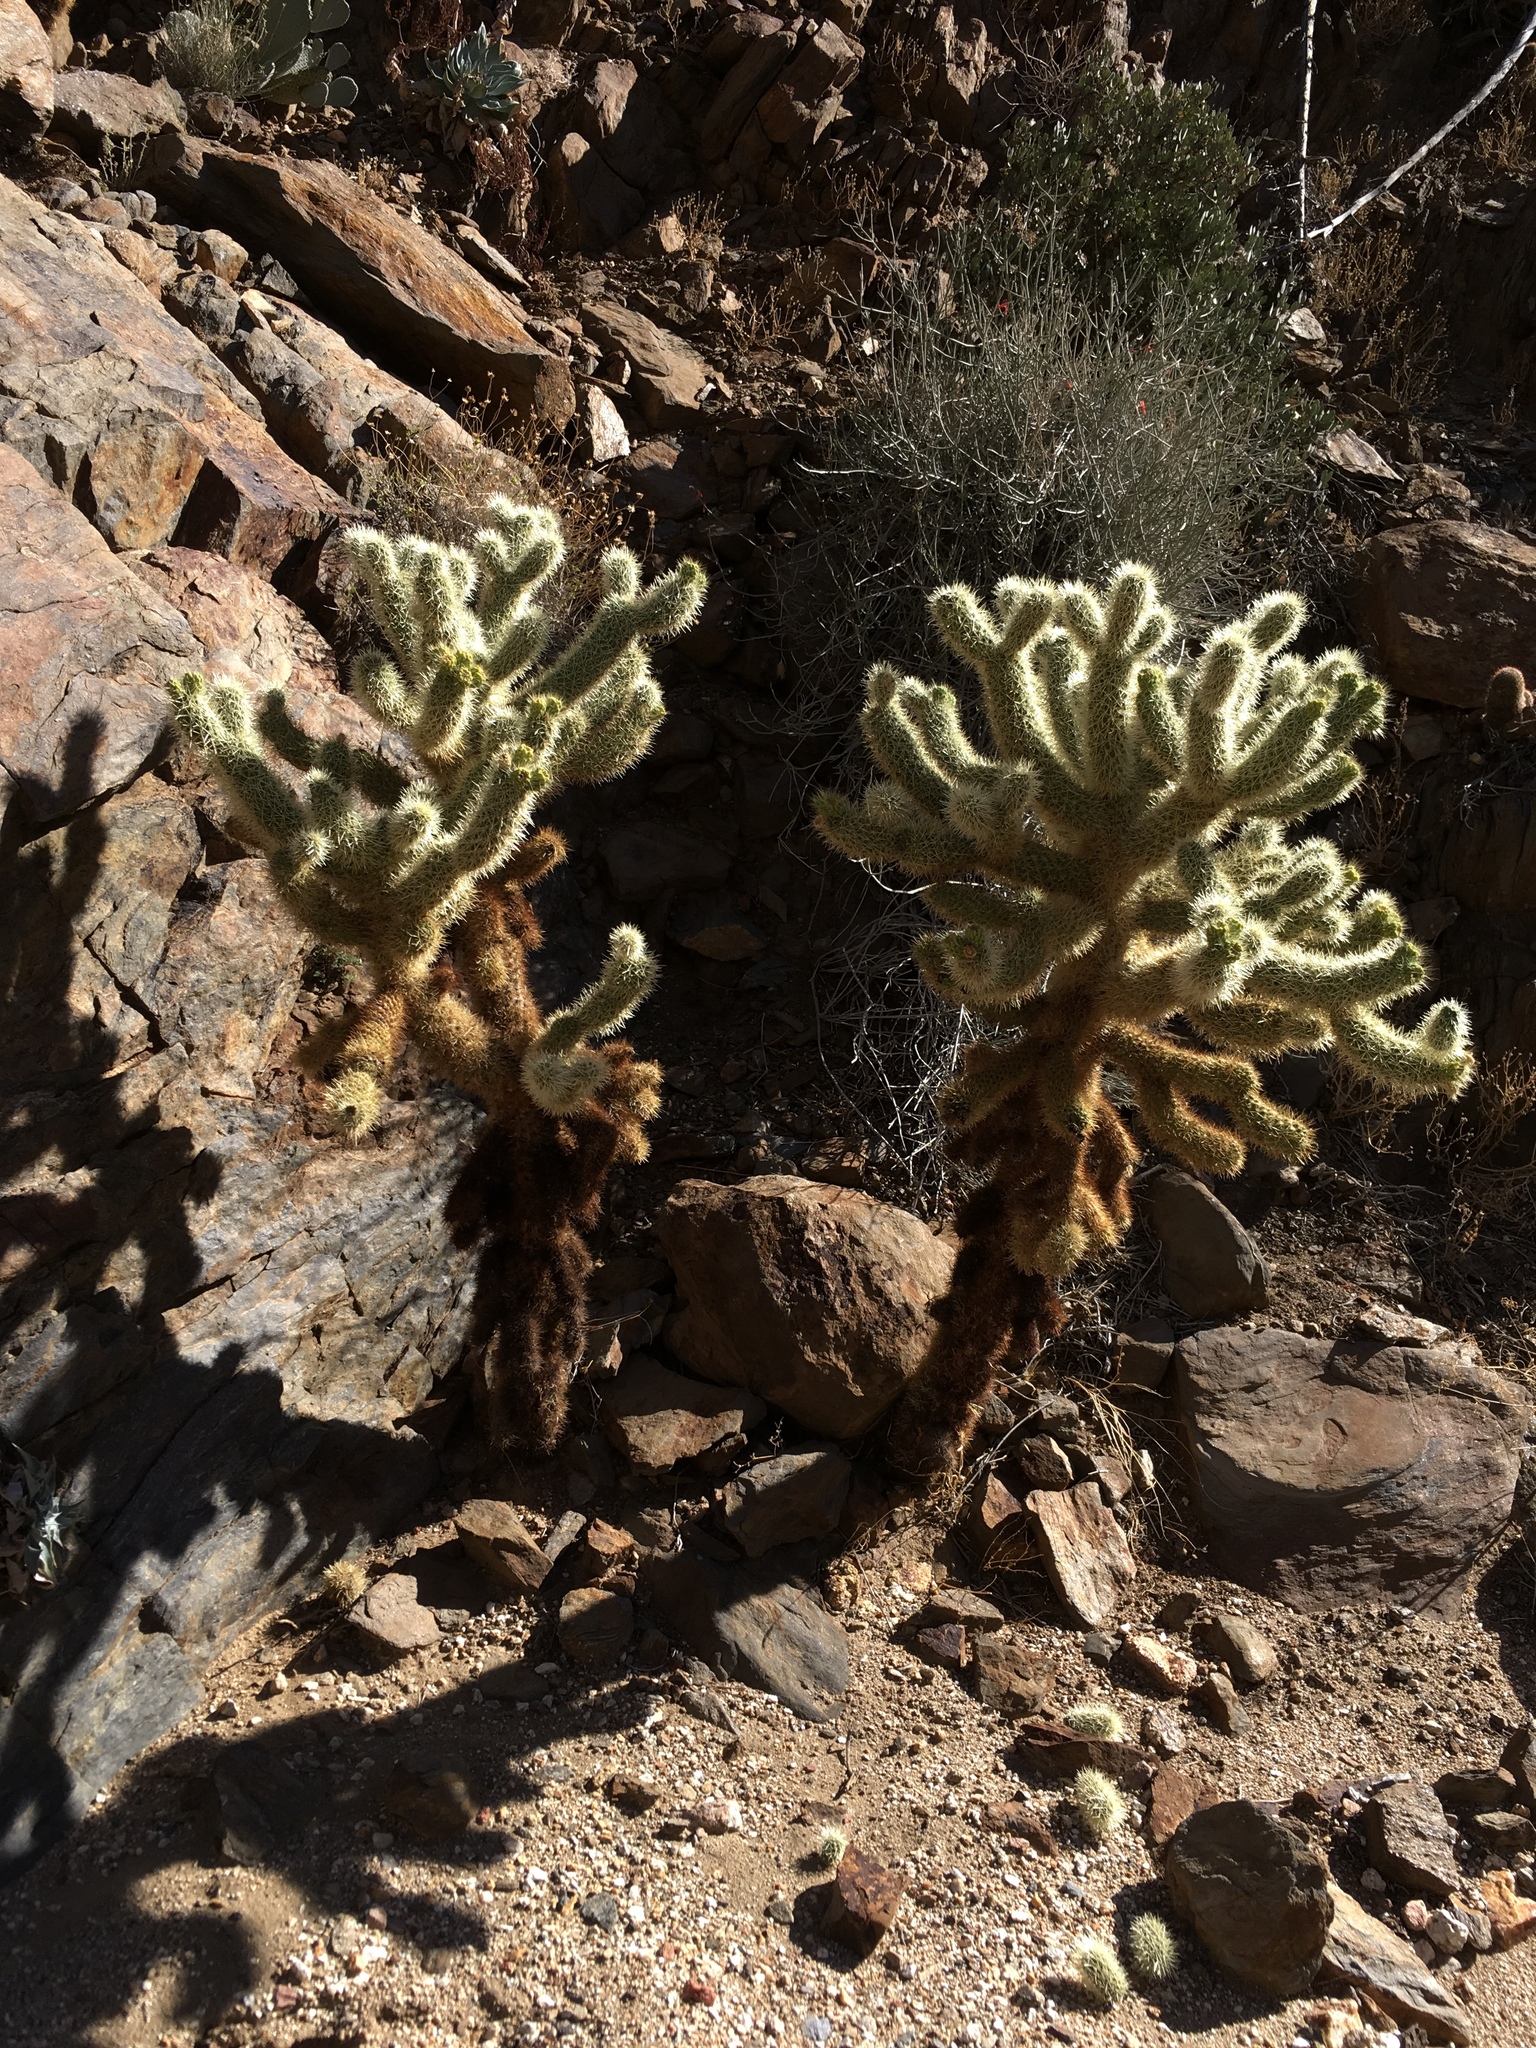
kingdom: Plantae
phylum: Tracheophyta
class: Magnoliopsida
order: Caryophyllales
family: Cactaceae
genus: Cylindropuntia
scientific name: Cylindropuntia fosbergii
